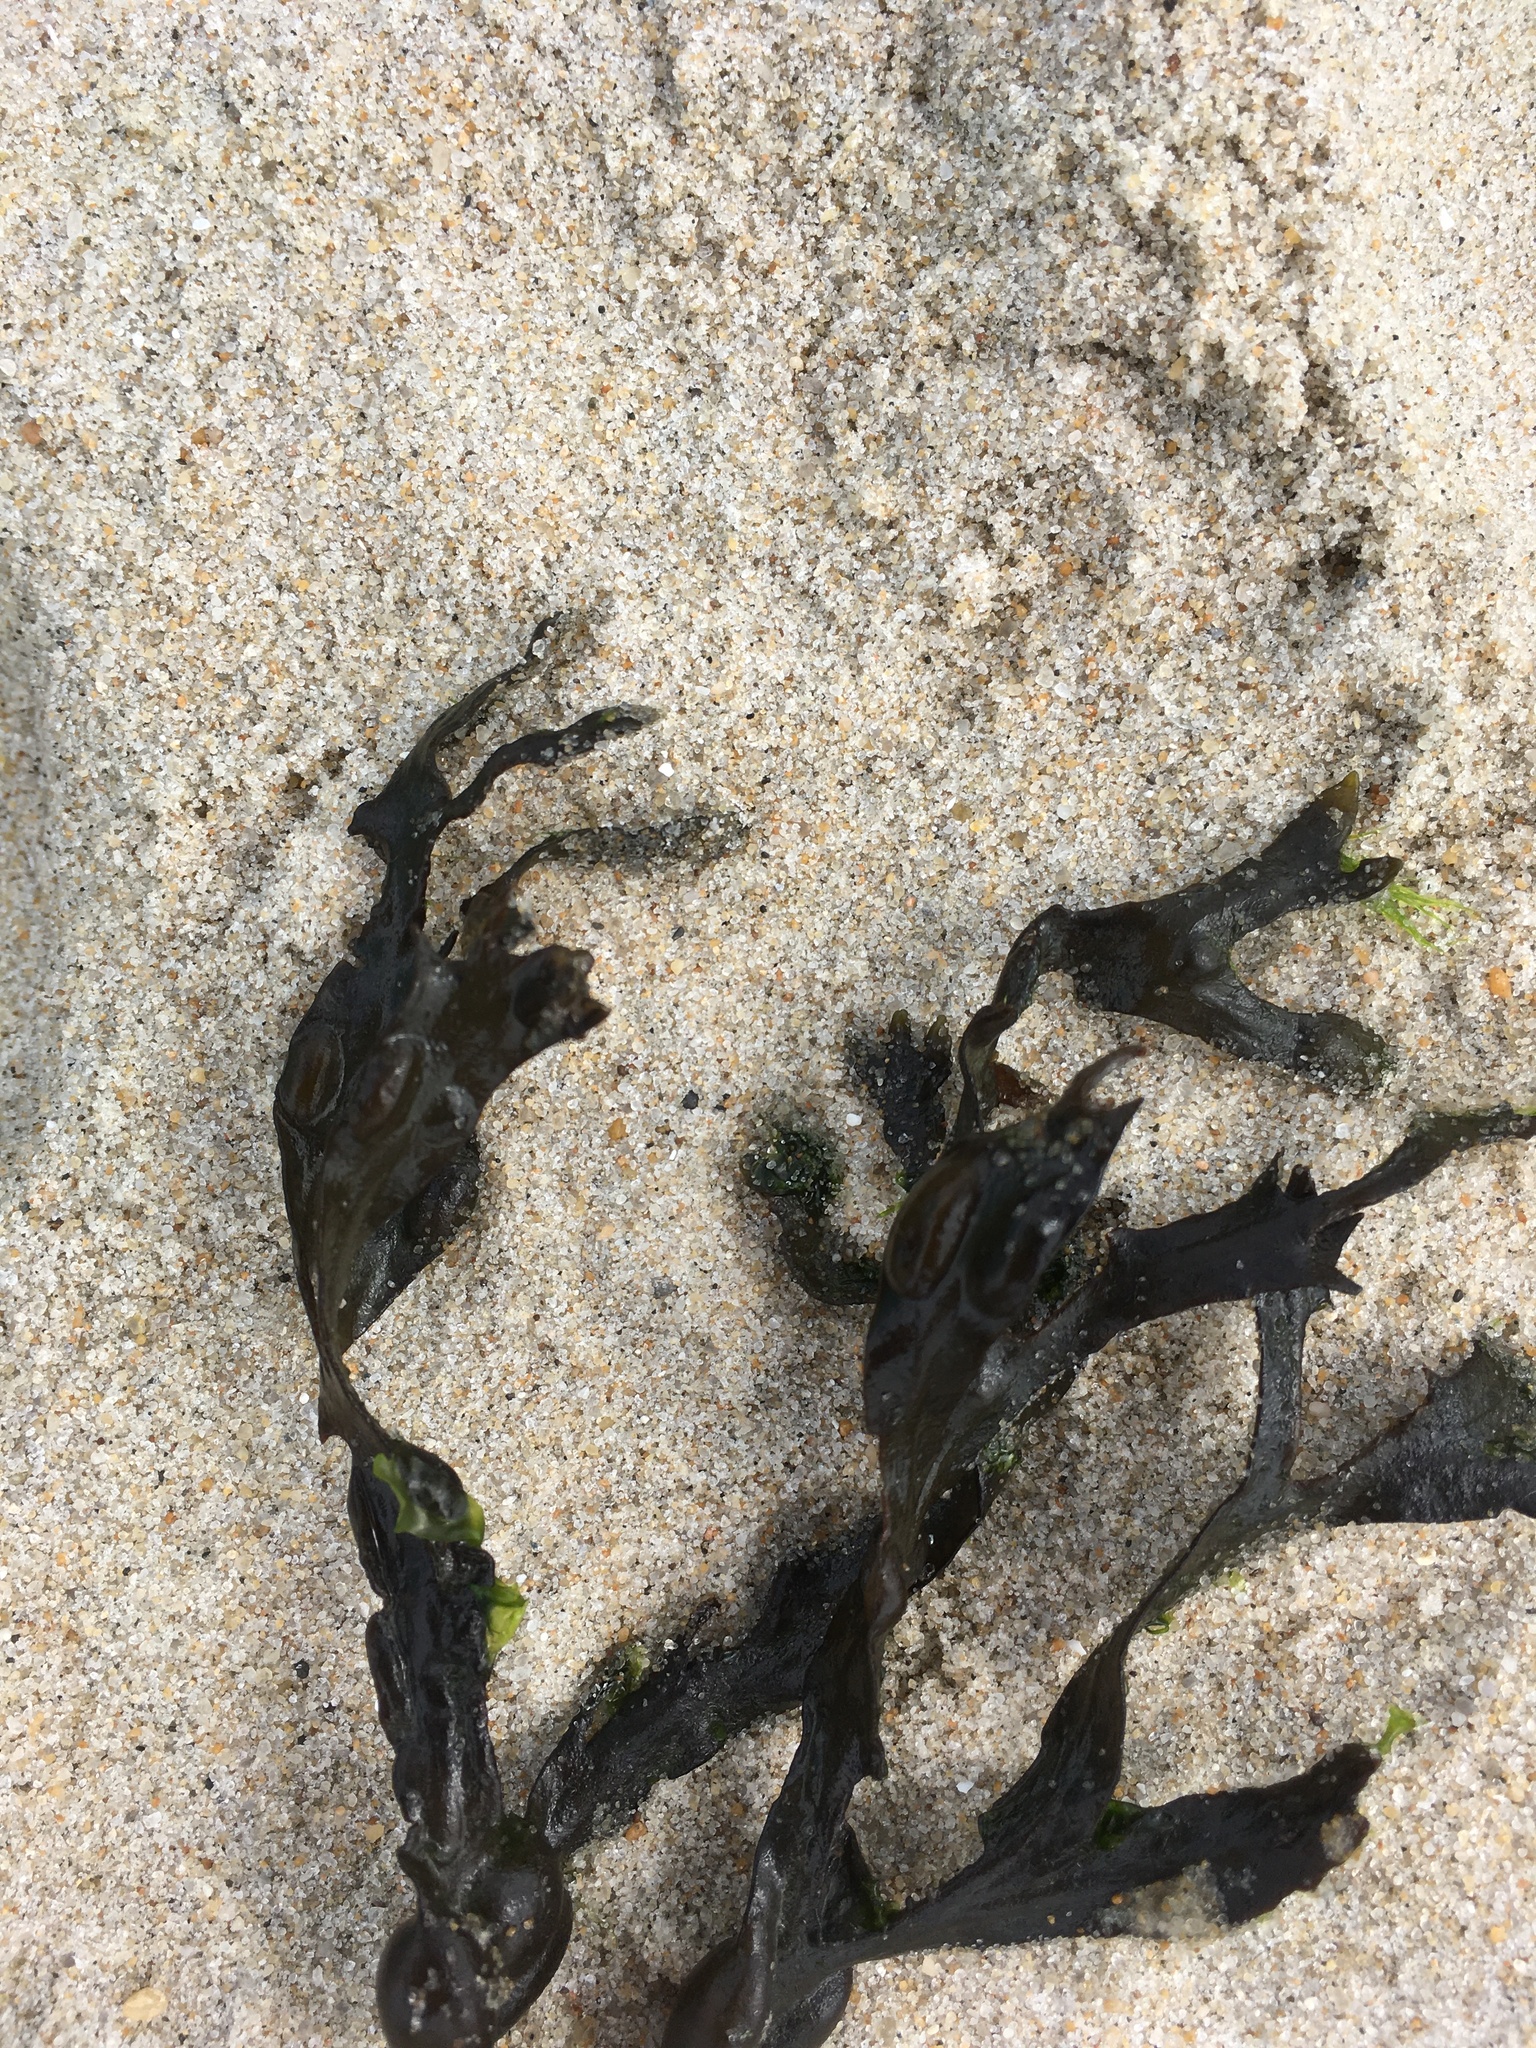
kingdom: Chromista
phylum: Ochrophyta
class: Phaeophyceae
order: Fucales
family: Fucaceae
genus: Fucus
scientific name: Fucus vesiculosus
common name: Bladder wrack
